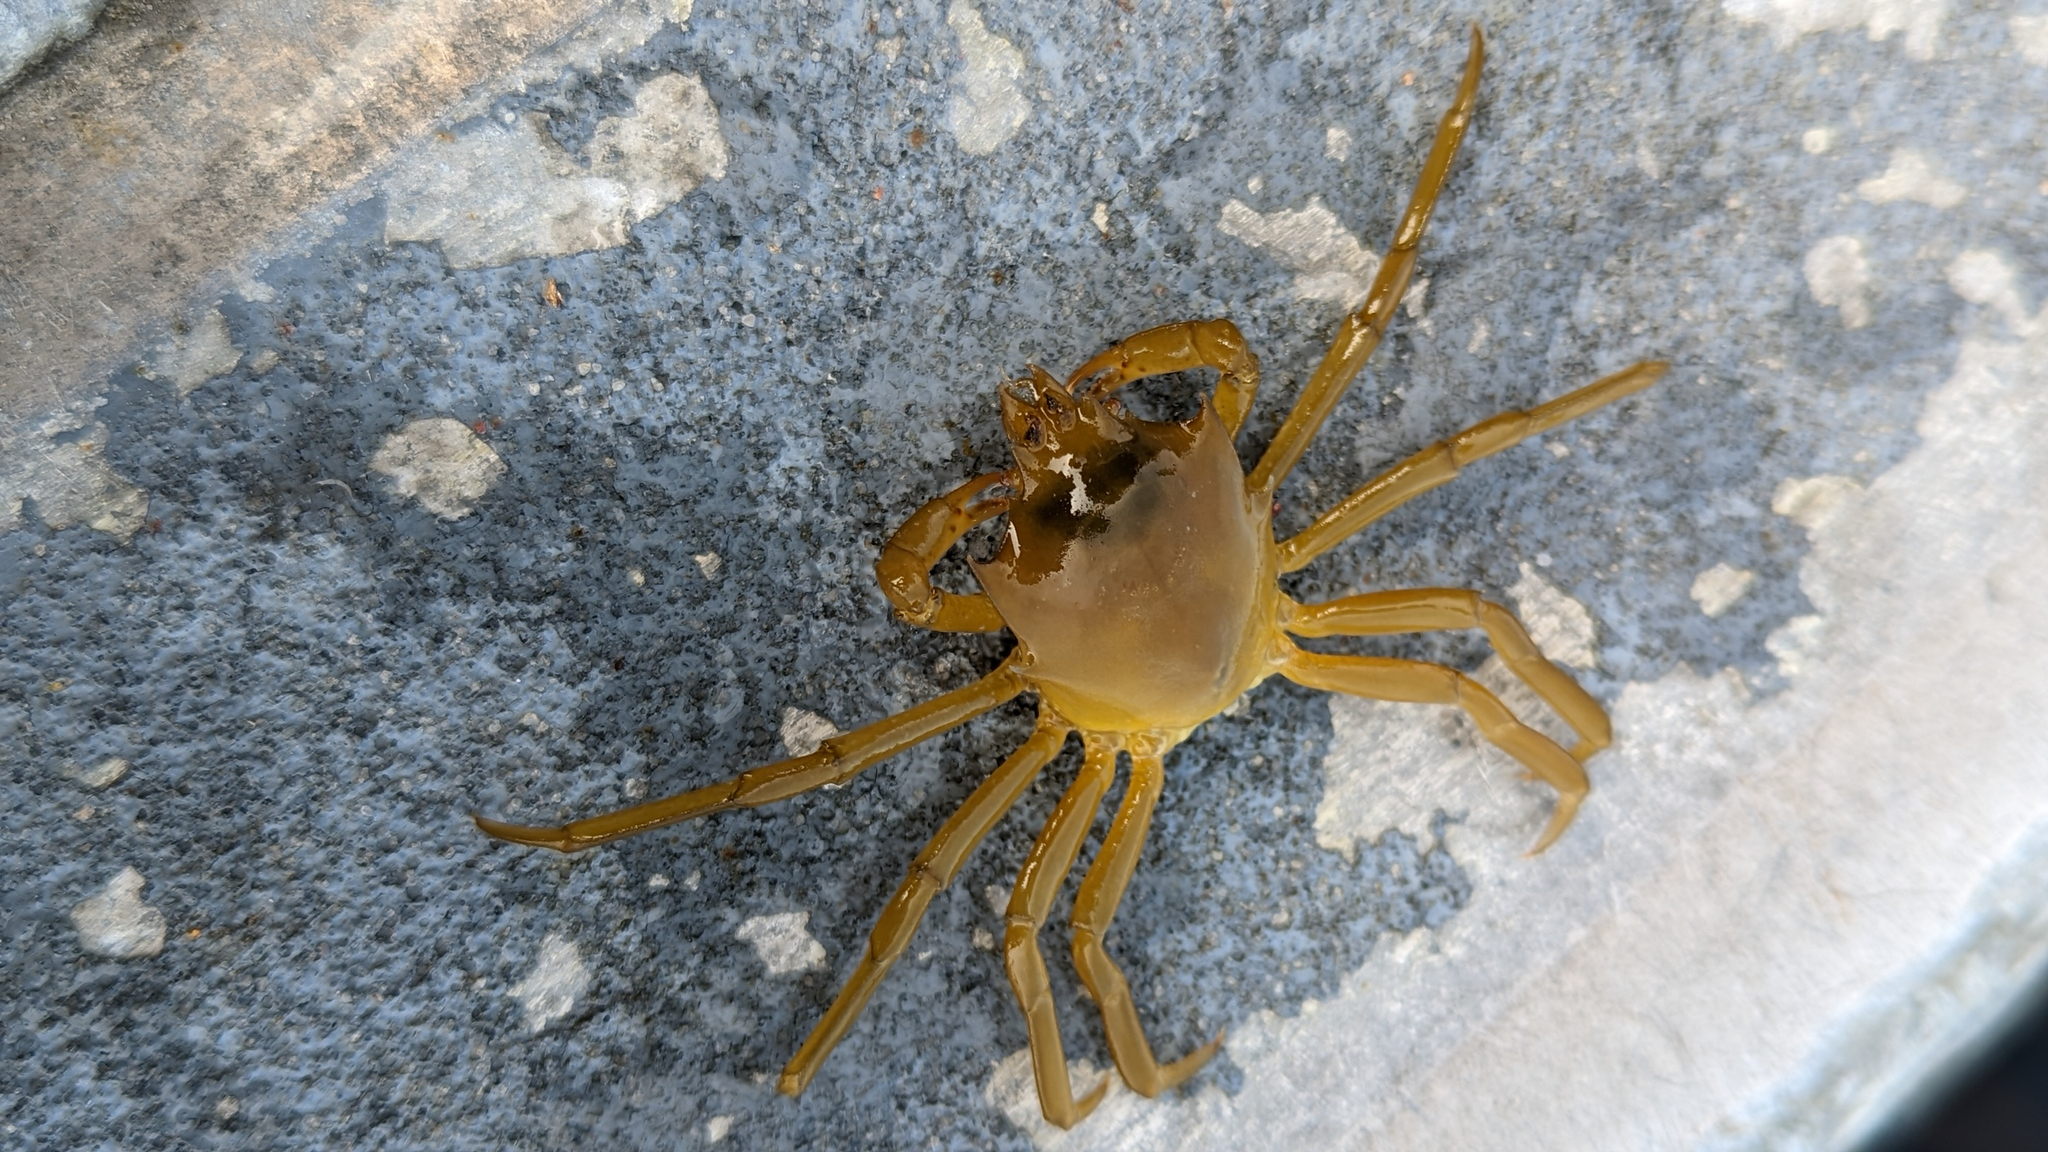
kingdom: Animalia
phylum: Arthropoda
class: Malacostraca
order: Decapoda
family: Epialtidae
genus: Pugettia
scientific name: Pugettia producta
